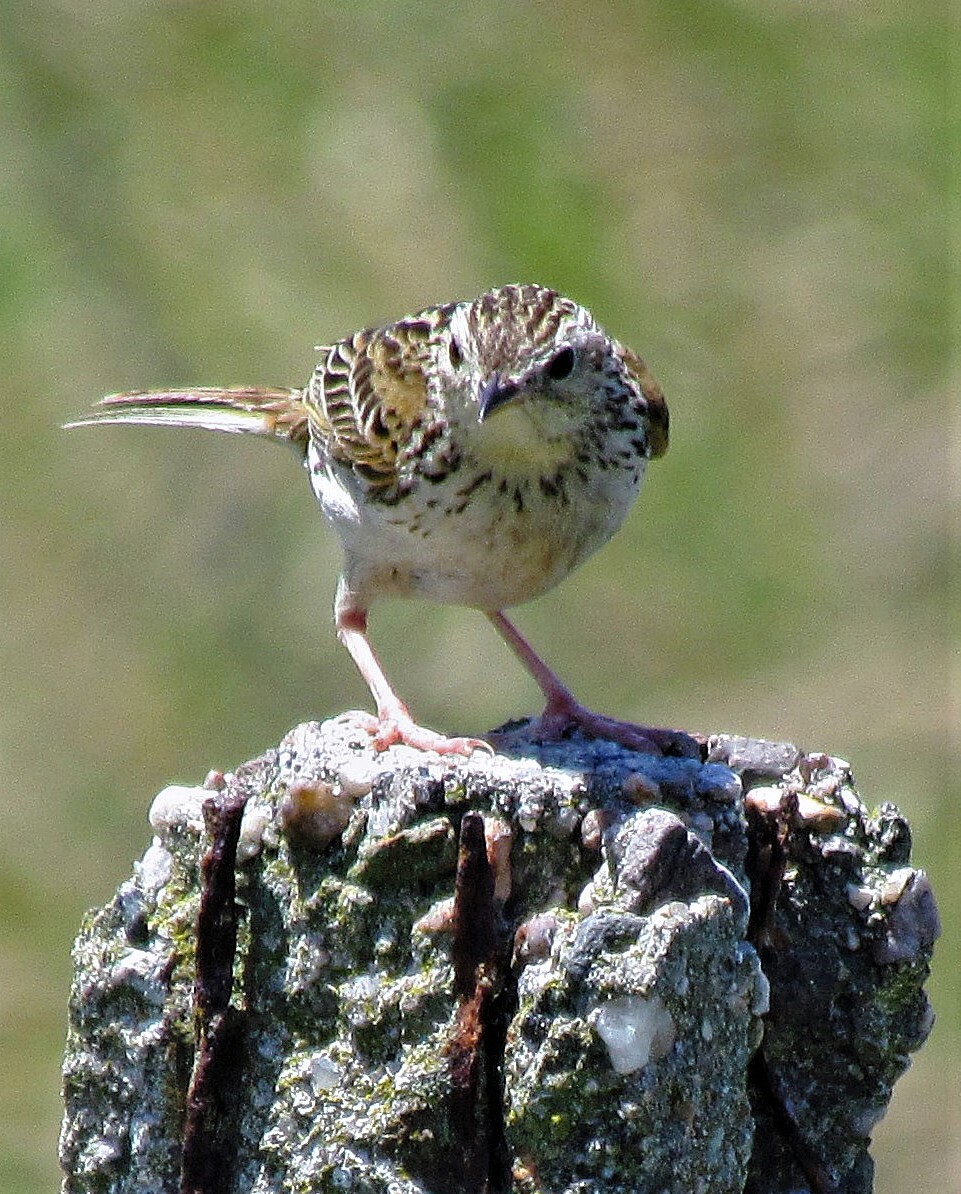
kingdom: Animalia
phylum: Chordata
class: Aves
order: Passeriformes
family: Motacillidae
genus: Anthus
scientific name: Anthus hellmayri
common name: Hellmayr's pipit
